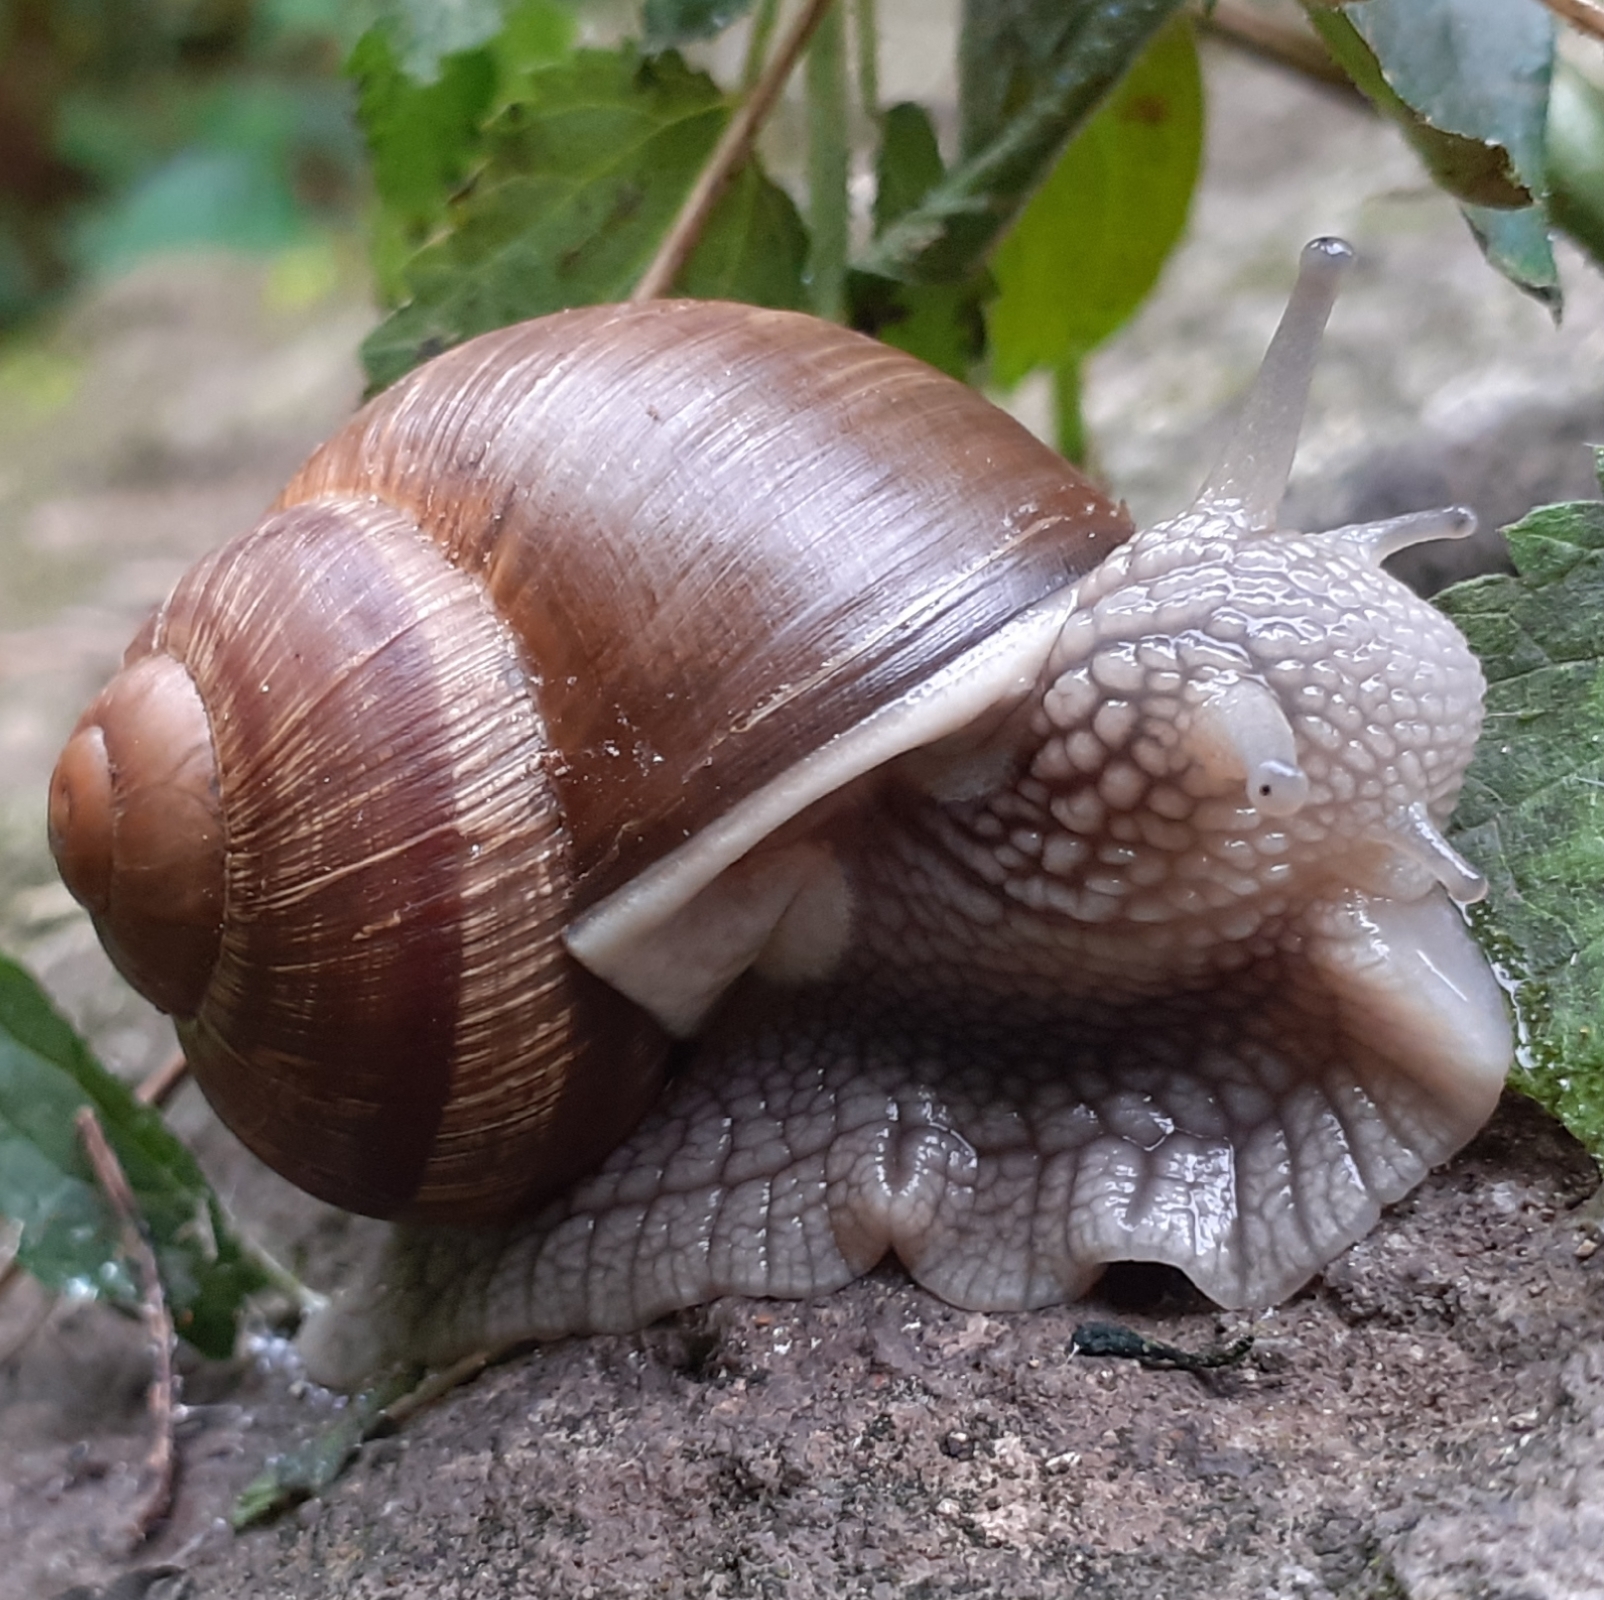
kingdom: Animalia
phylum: Mollusca
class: Gastropoda
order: Stylommatophora
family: Helicidae
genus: Helix
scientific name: Helix pomatia
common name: Roman snail
